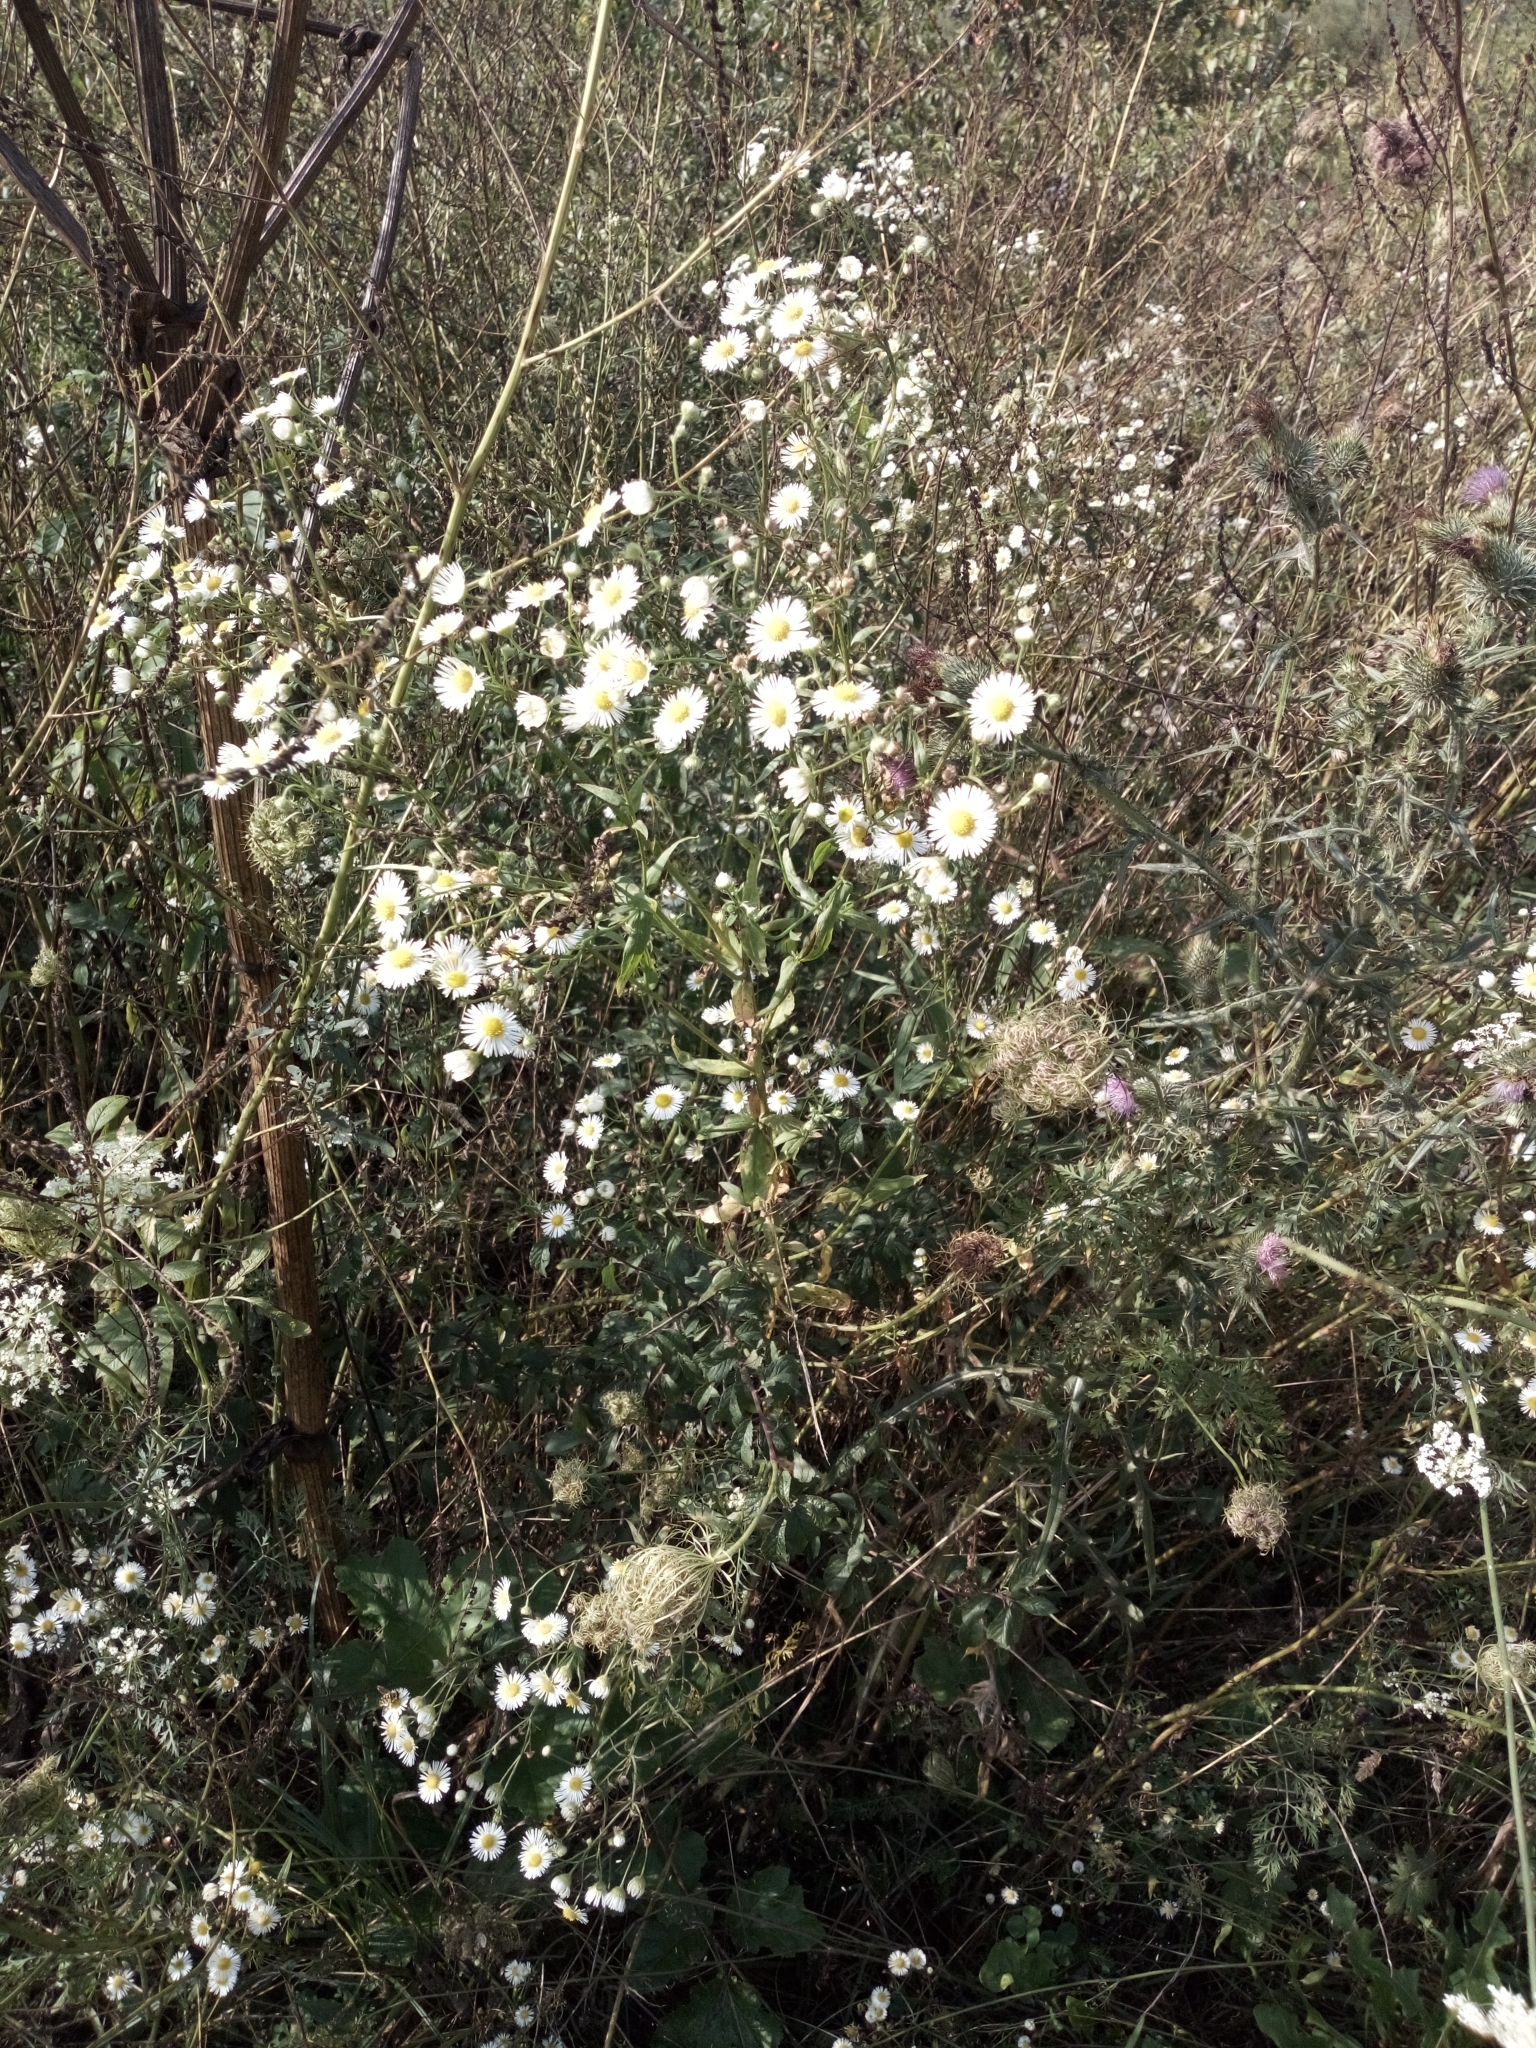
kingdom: Plantae
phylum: Tracheophyta
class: Magnoliopsida
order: Asterales
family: Asteraceae
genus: Erigeron
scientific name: Erigeron annuus
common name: Tall fleabane
